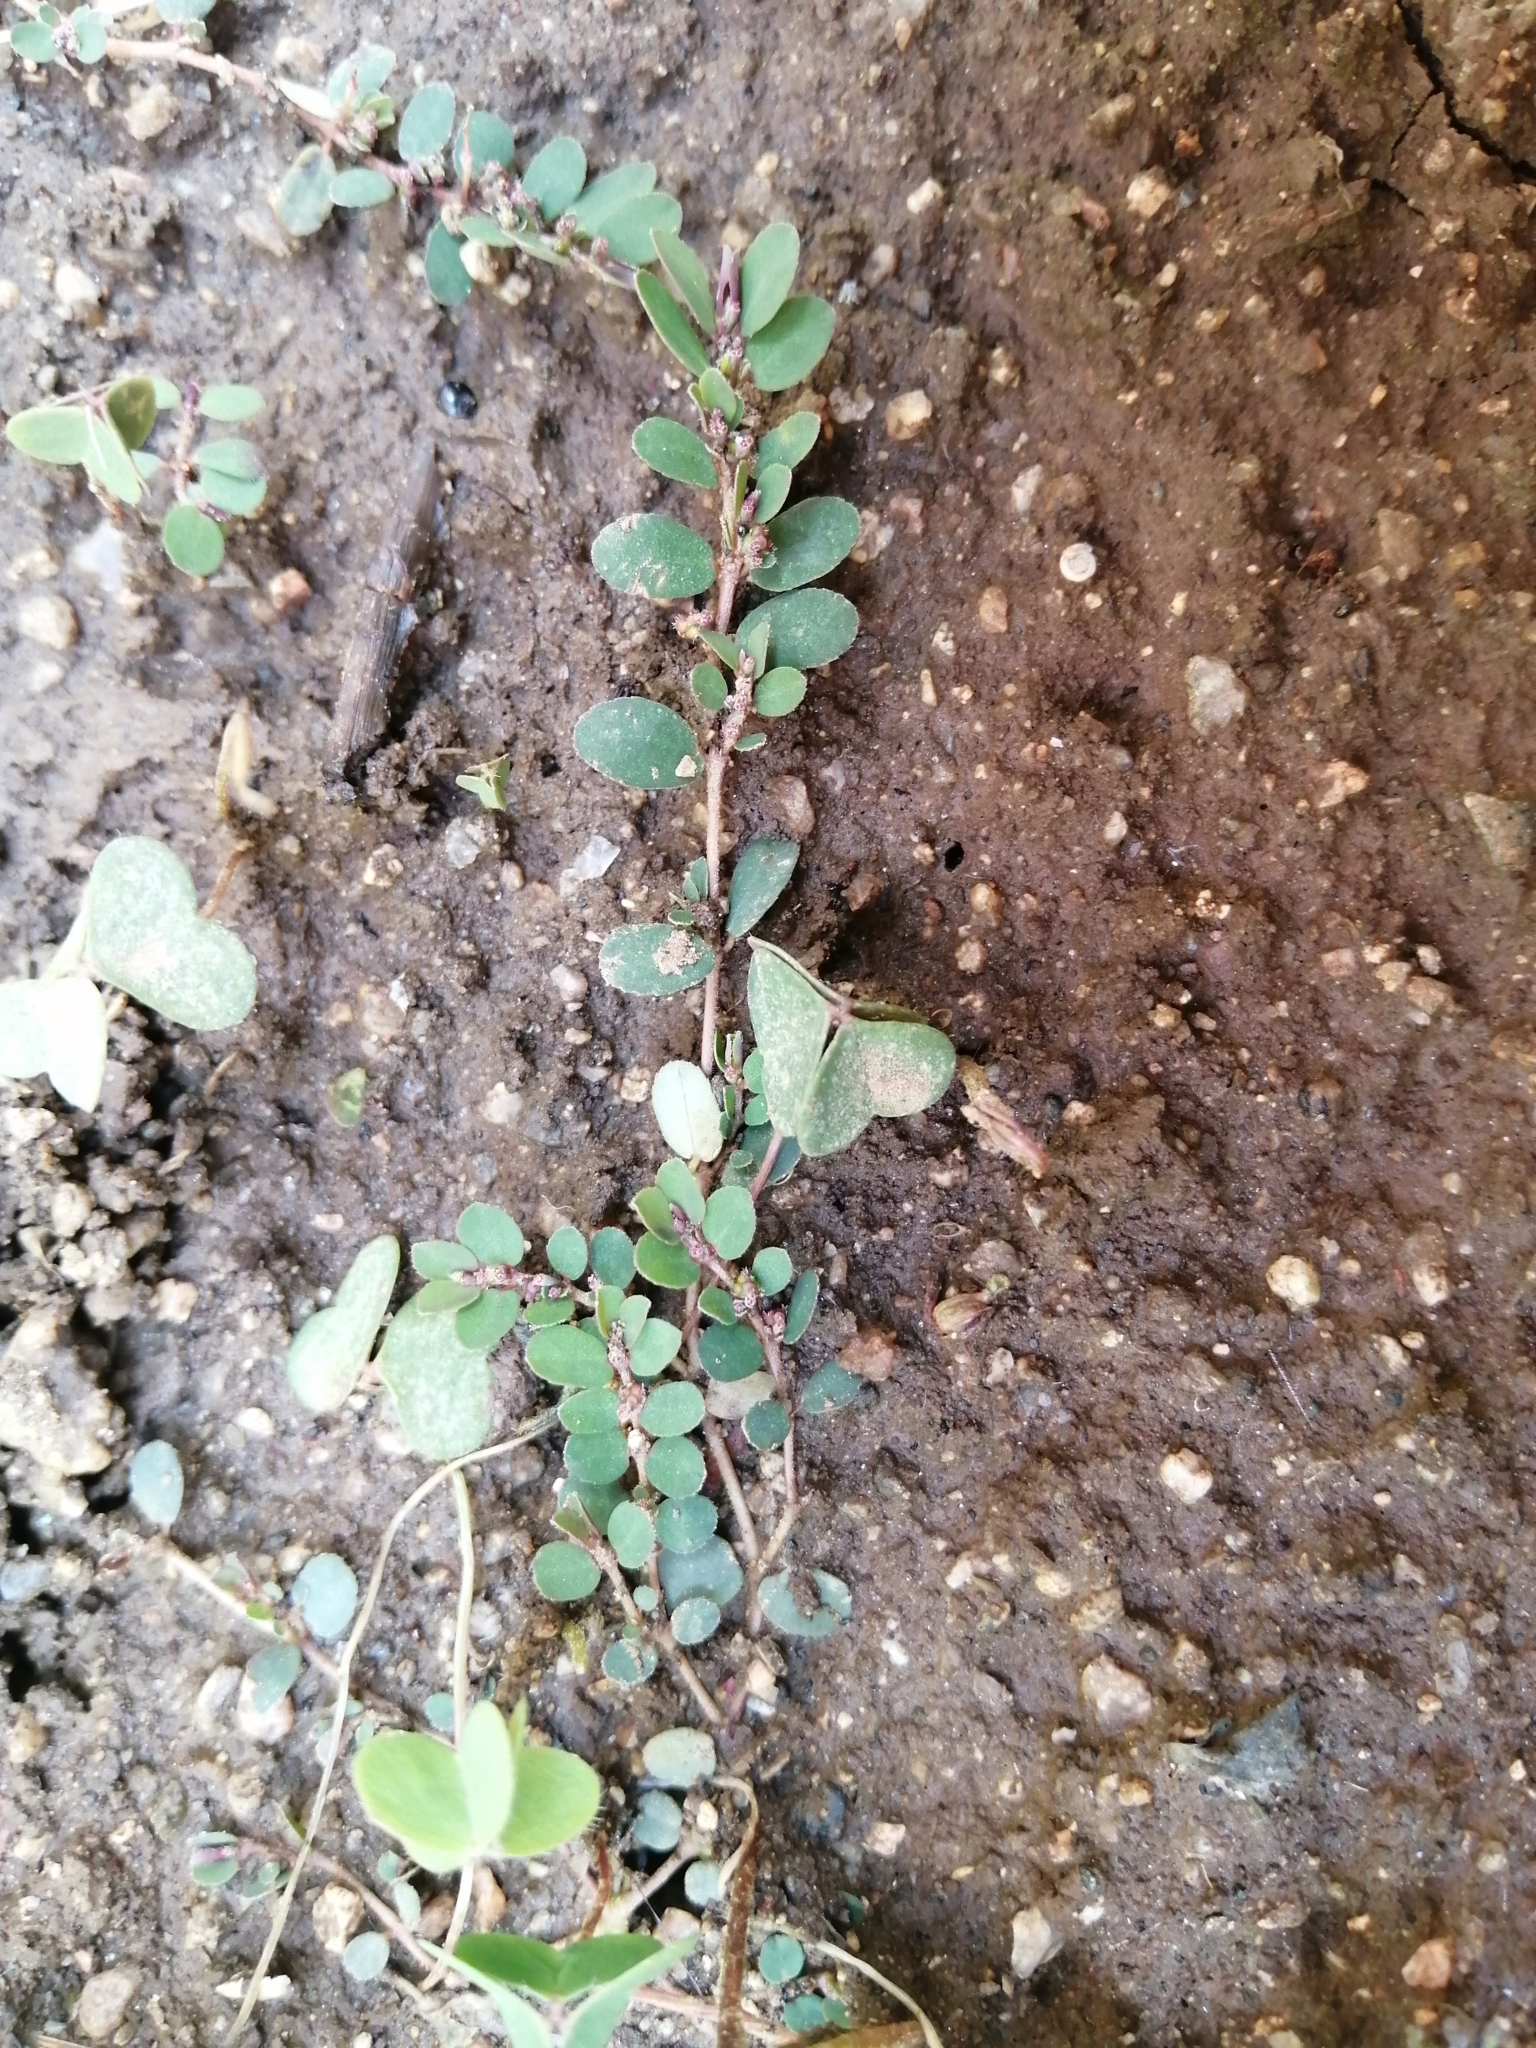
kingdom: Plantae
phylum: Tracheophyta
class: Magnoliopsida
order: Malpighiales
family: Euphorbiaceae
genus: Euphorbia
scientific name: Euphorbia prostrata
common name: Prostrate sandmat
